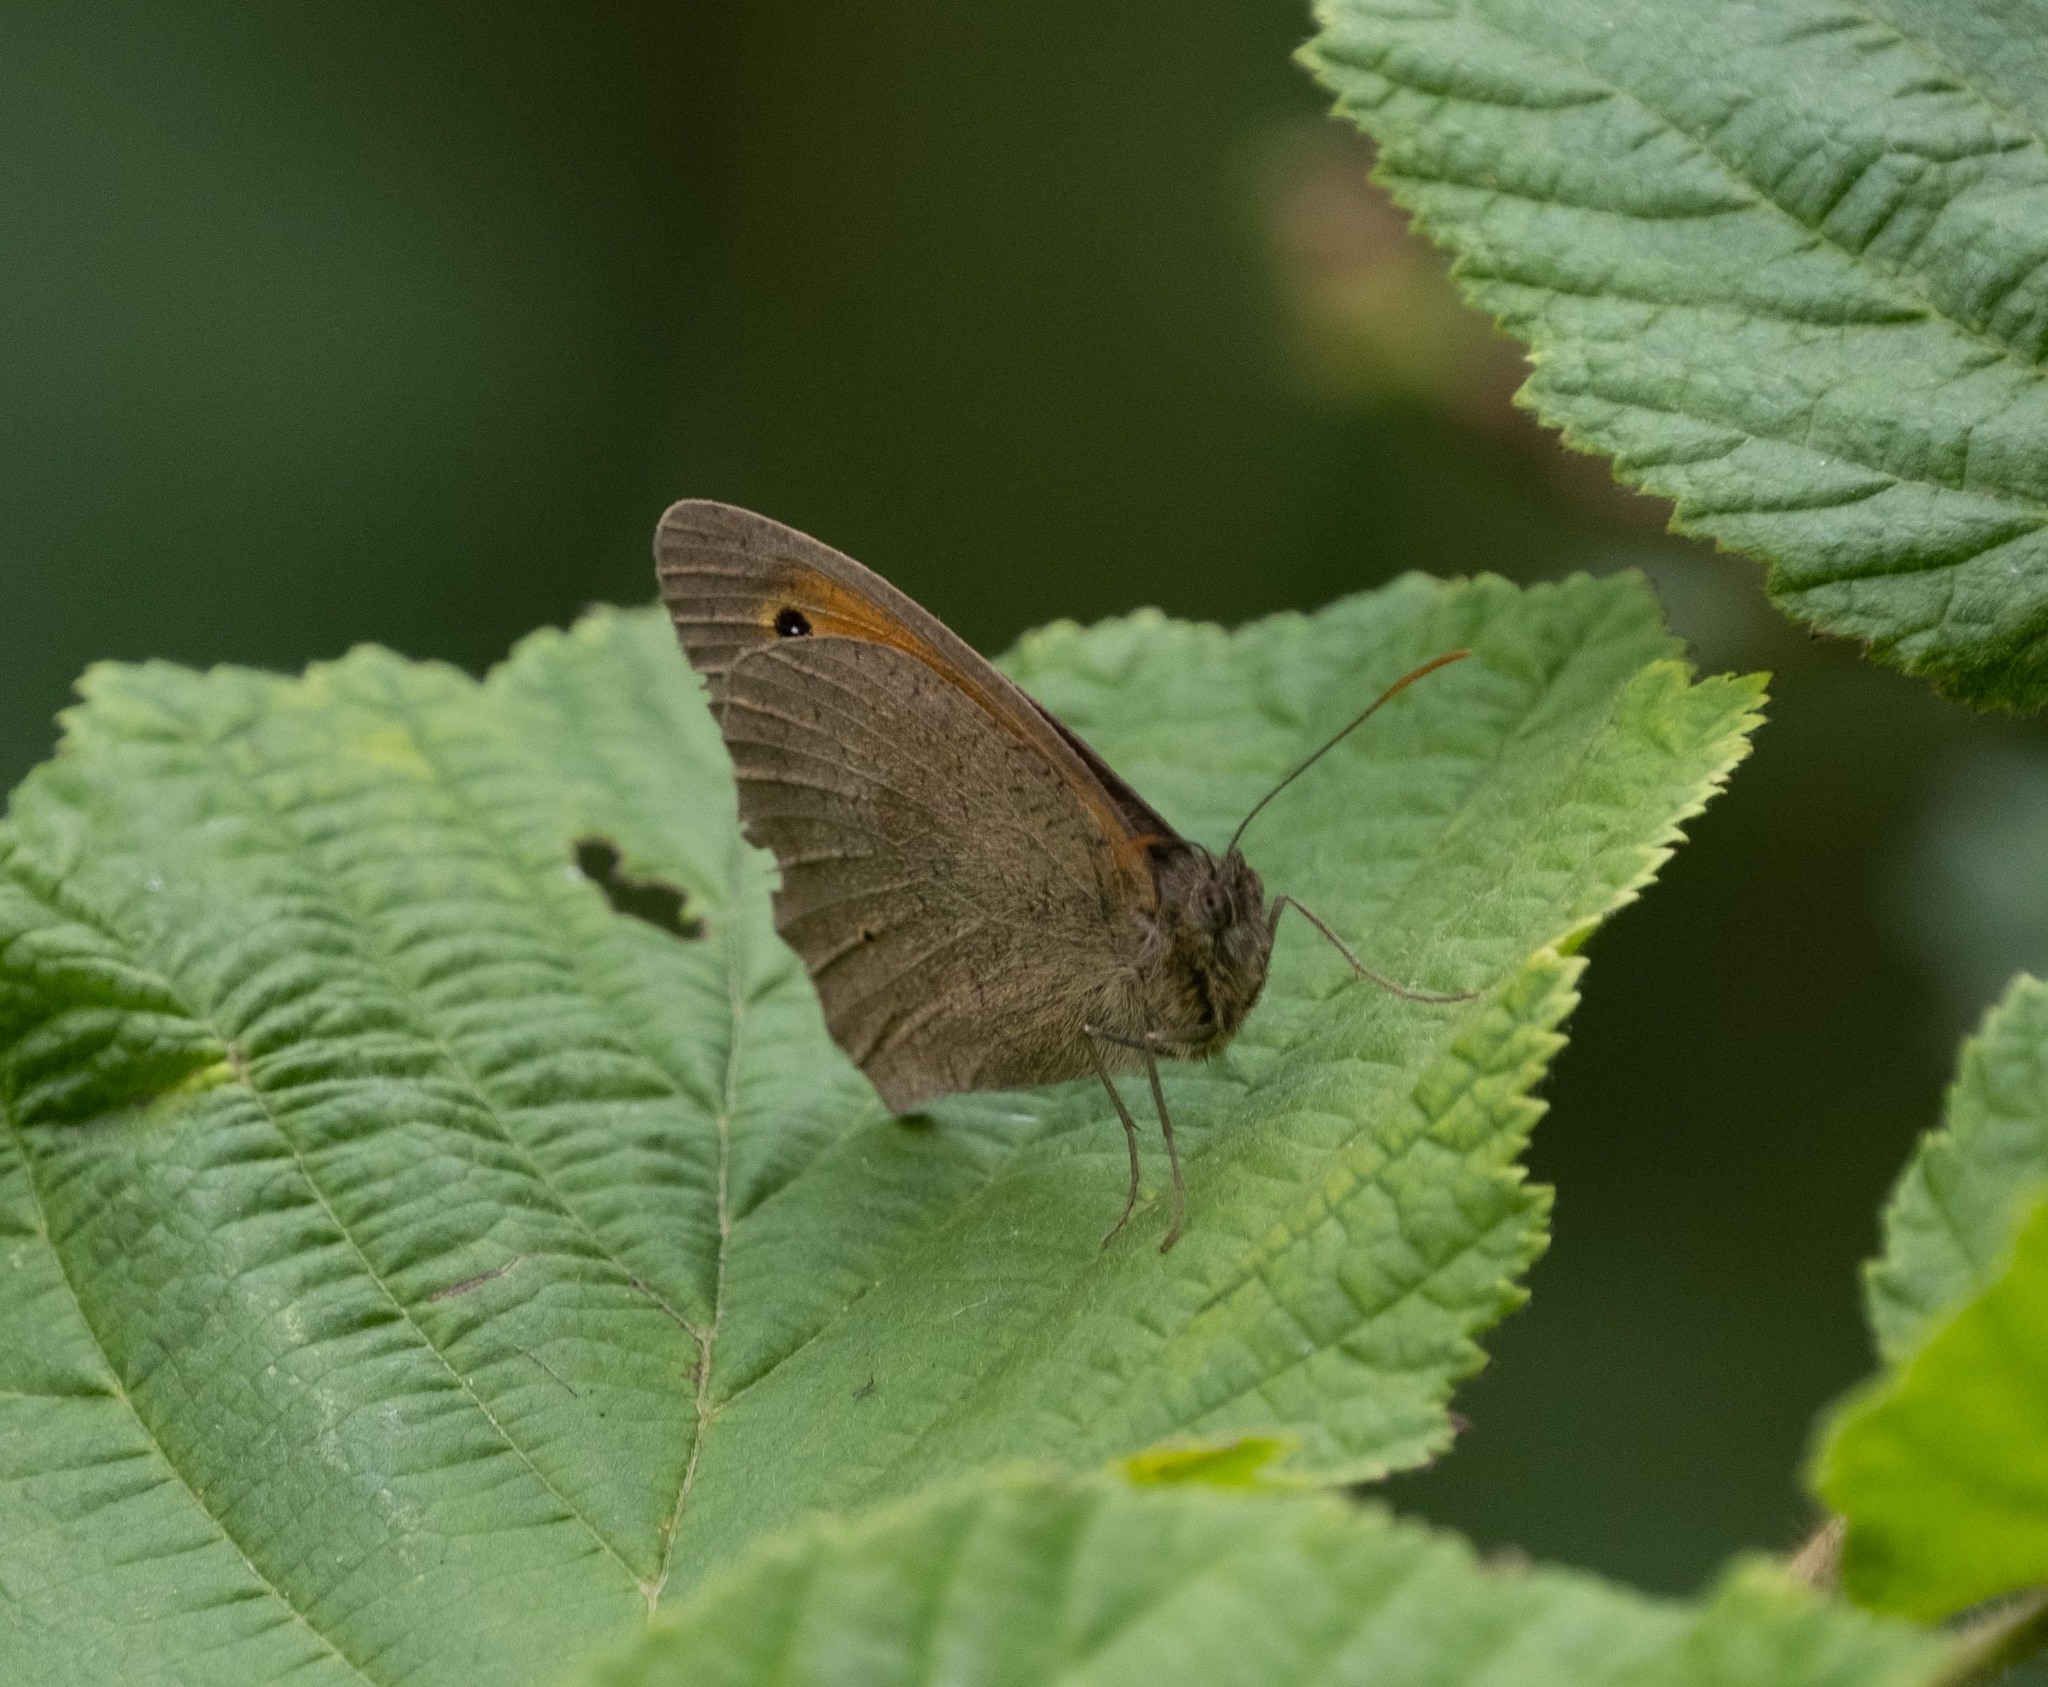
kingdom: Animalia
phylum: Arthropoda
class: Insecta
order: Lepidoptera
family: Nymphalidae
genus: Maniola
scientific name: Maniola jurtina
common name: Meadow brown
